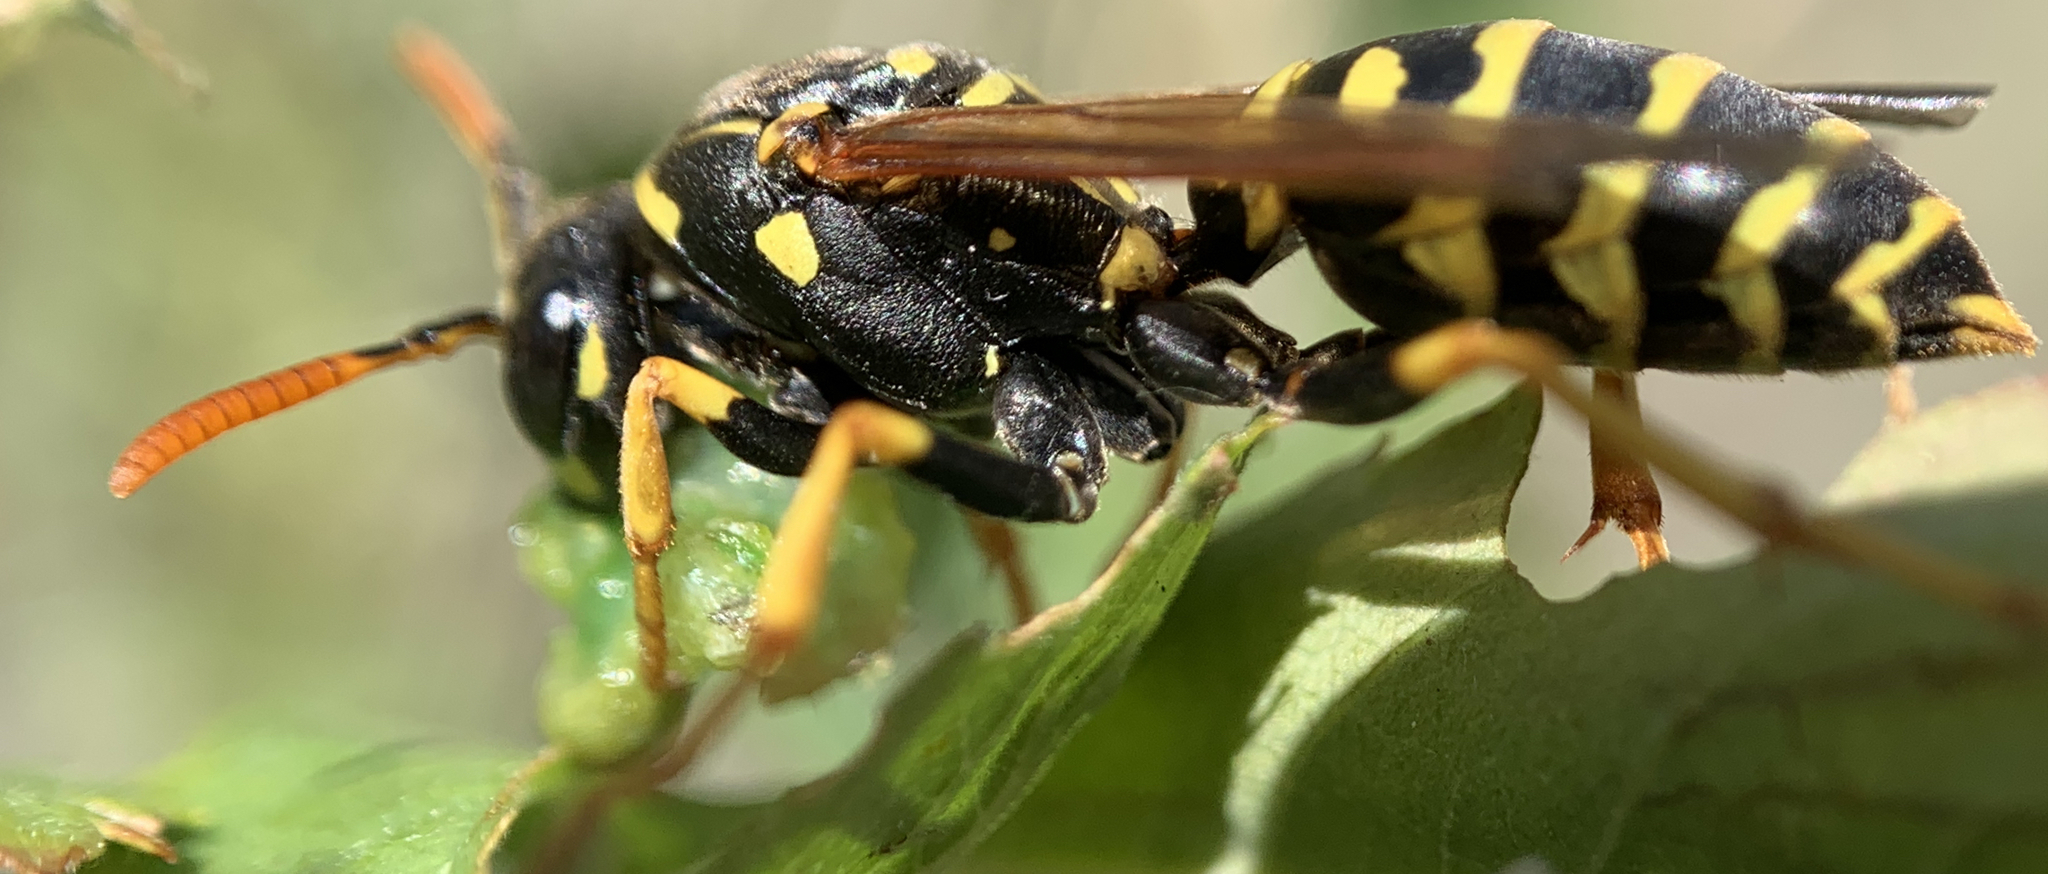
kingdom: Animalia
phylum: Arthropoda
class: Insecta
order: Hymenoptera
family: Eumenidae
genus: Polistes
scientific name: Polistes dominula
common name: Paper wasp
